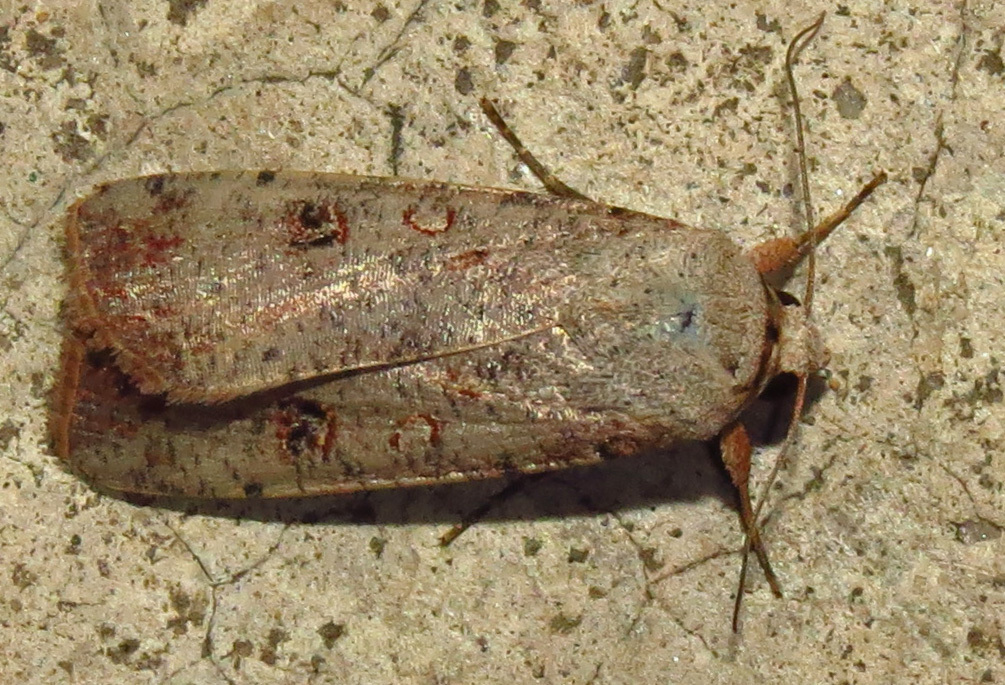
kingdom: Animalia
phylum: Arthropoda
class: Insecta
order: Lepidoptera
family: Noctuidae
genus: Anicla
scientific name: Anicla infecta
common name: Green cutworm
